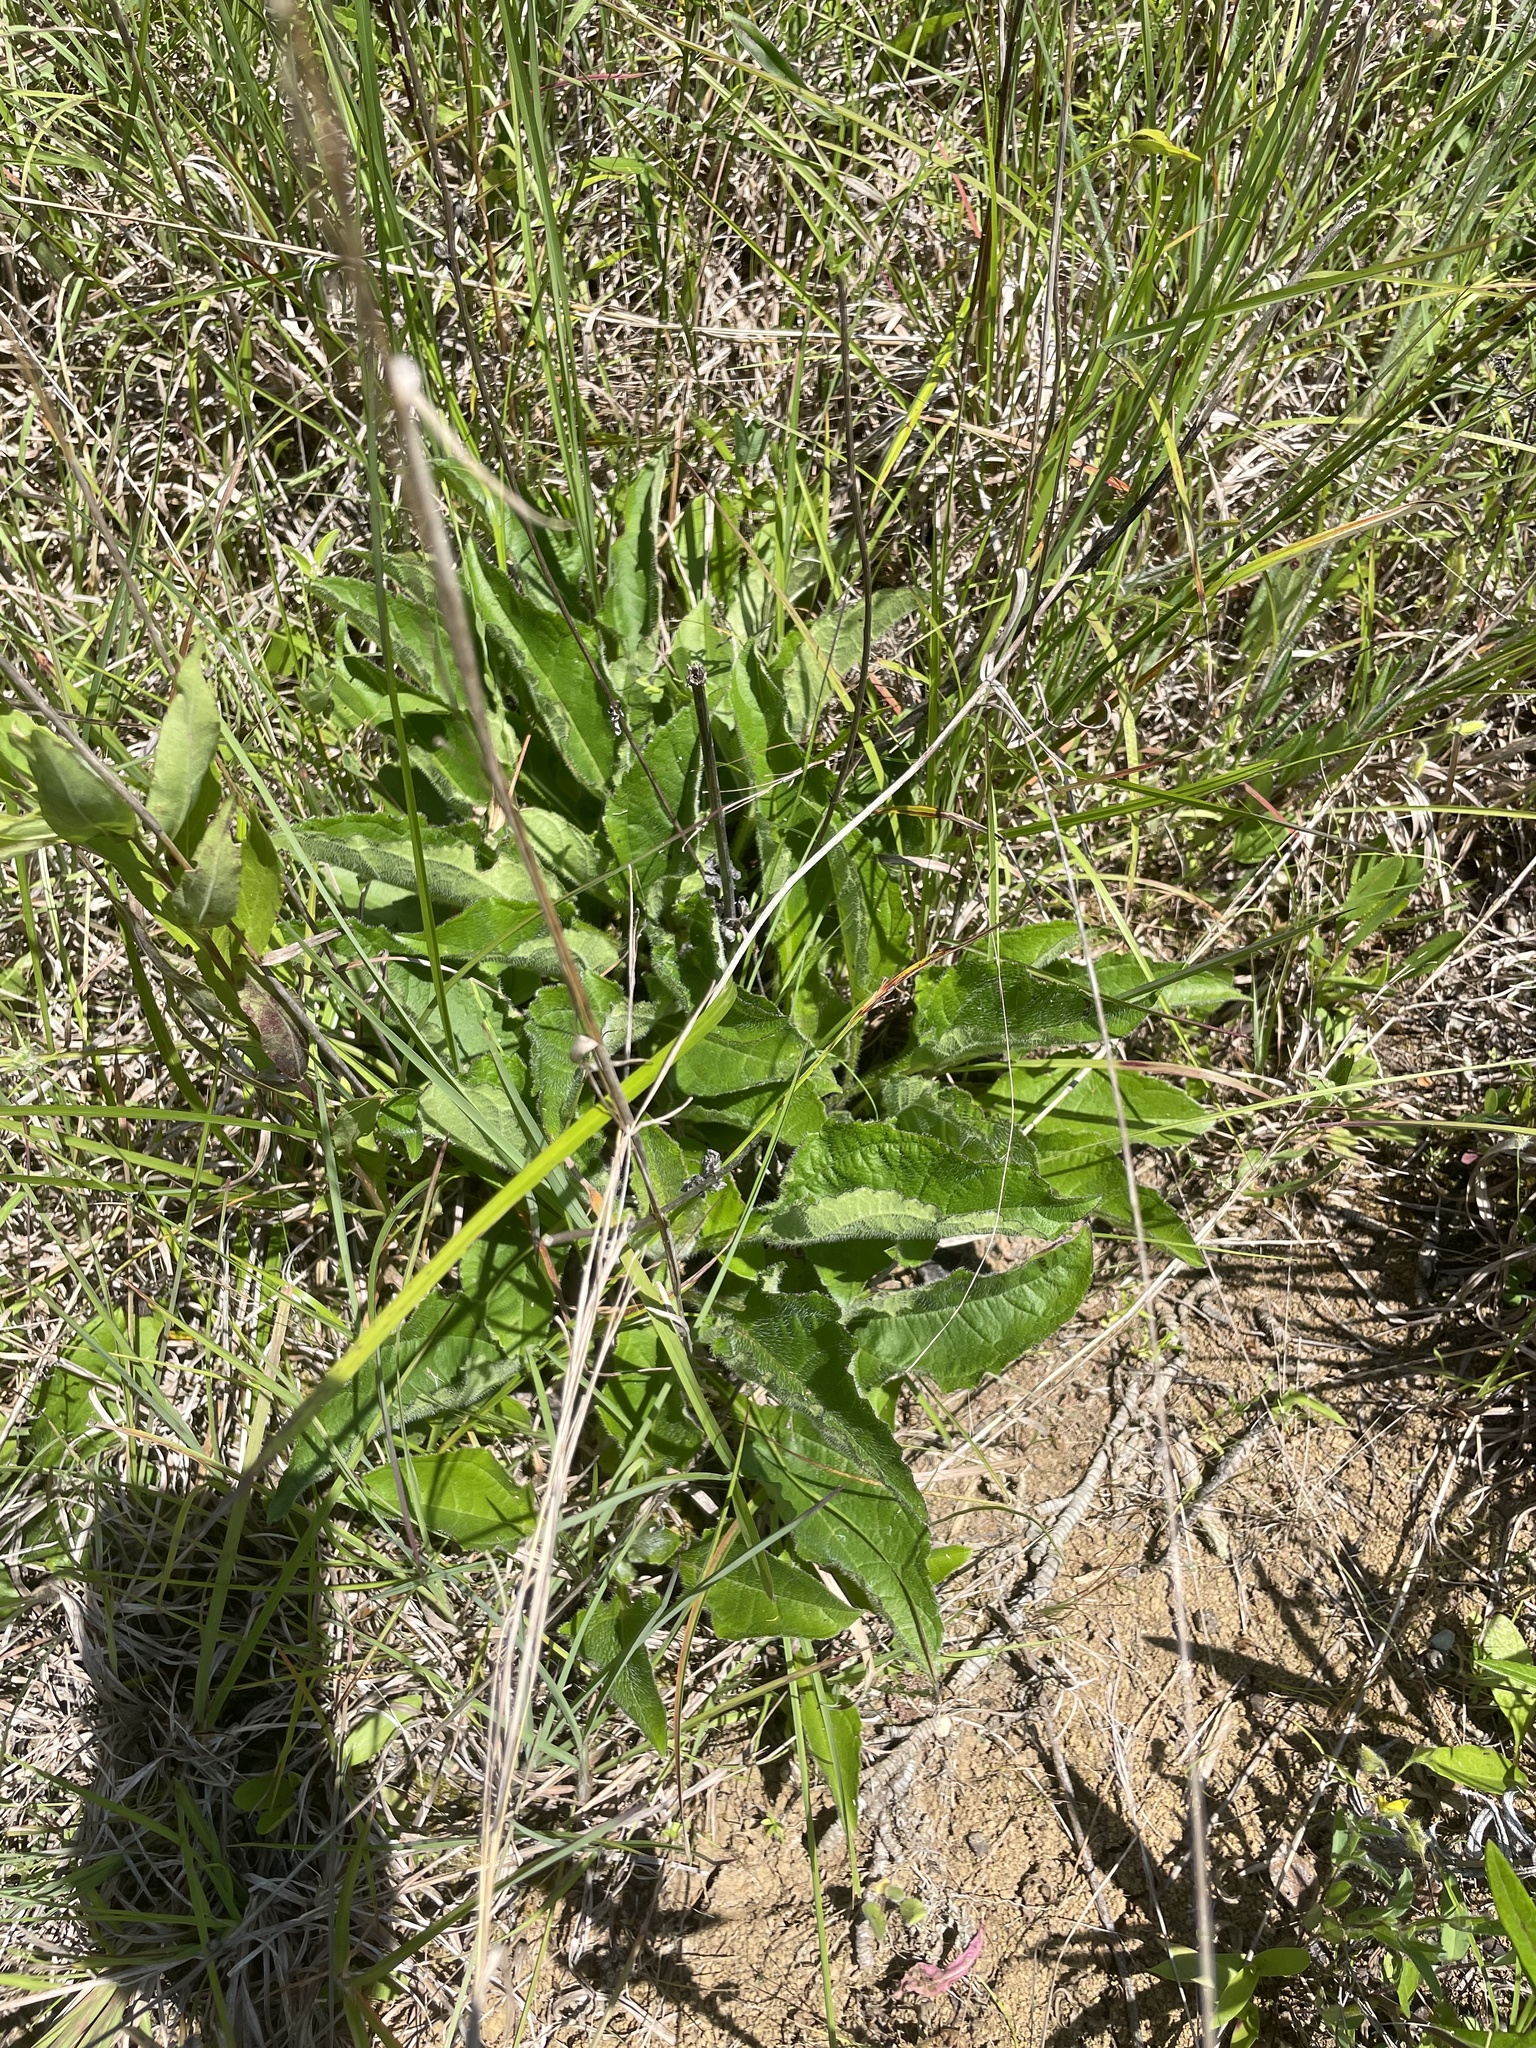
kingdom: Plantae
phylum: Tracheophyta
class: Magnoliopsida
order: Asterales
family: Asteraceae
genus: Helianthus
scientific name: Helianthus atrorubens
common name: Dark-eyed sunflower
